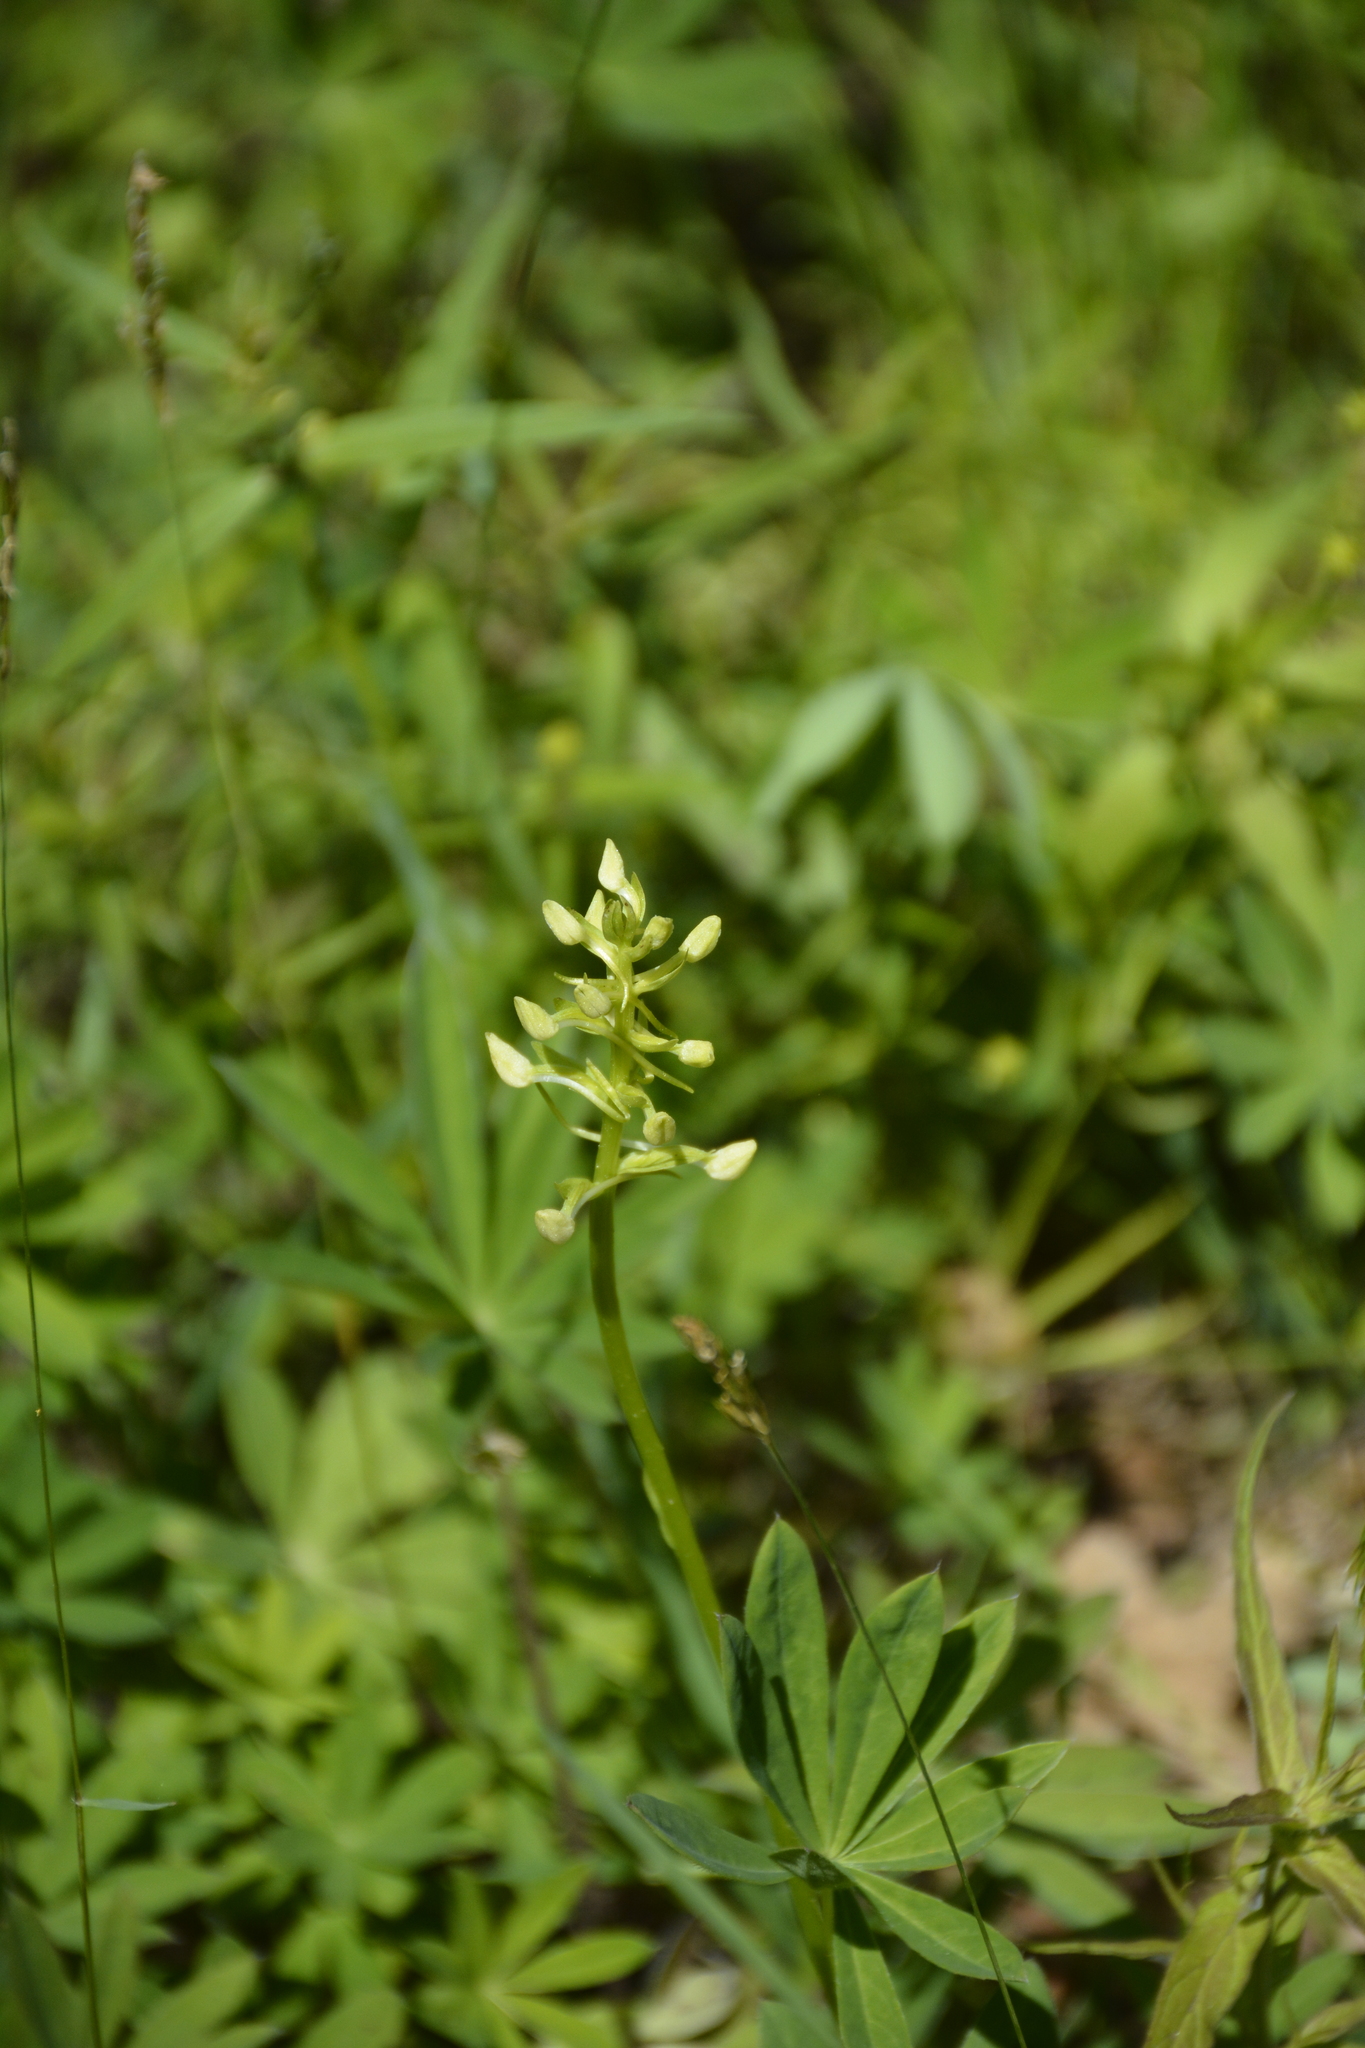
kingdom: Plantae
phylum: Tracheophyta
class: Liliopsida
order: Asparagales
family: Orchidaceae
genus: Platanthera
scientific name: Platanthera
